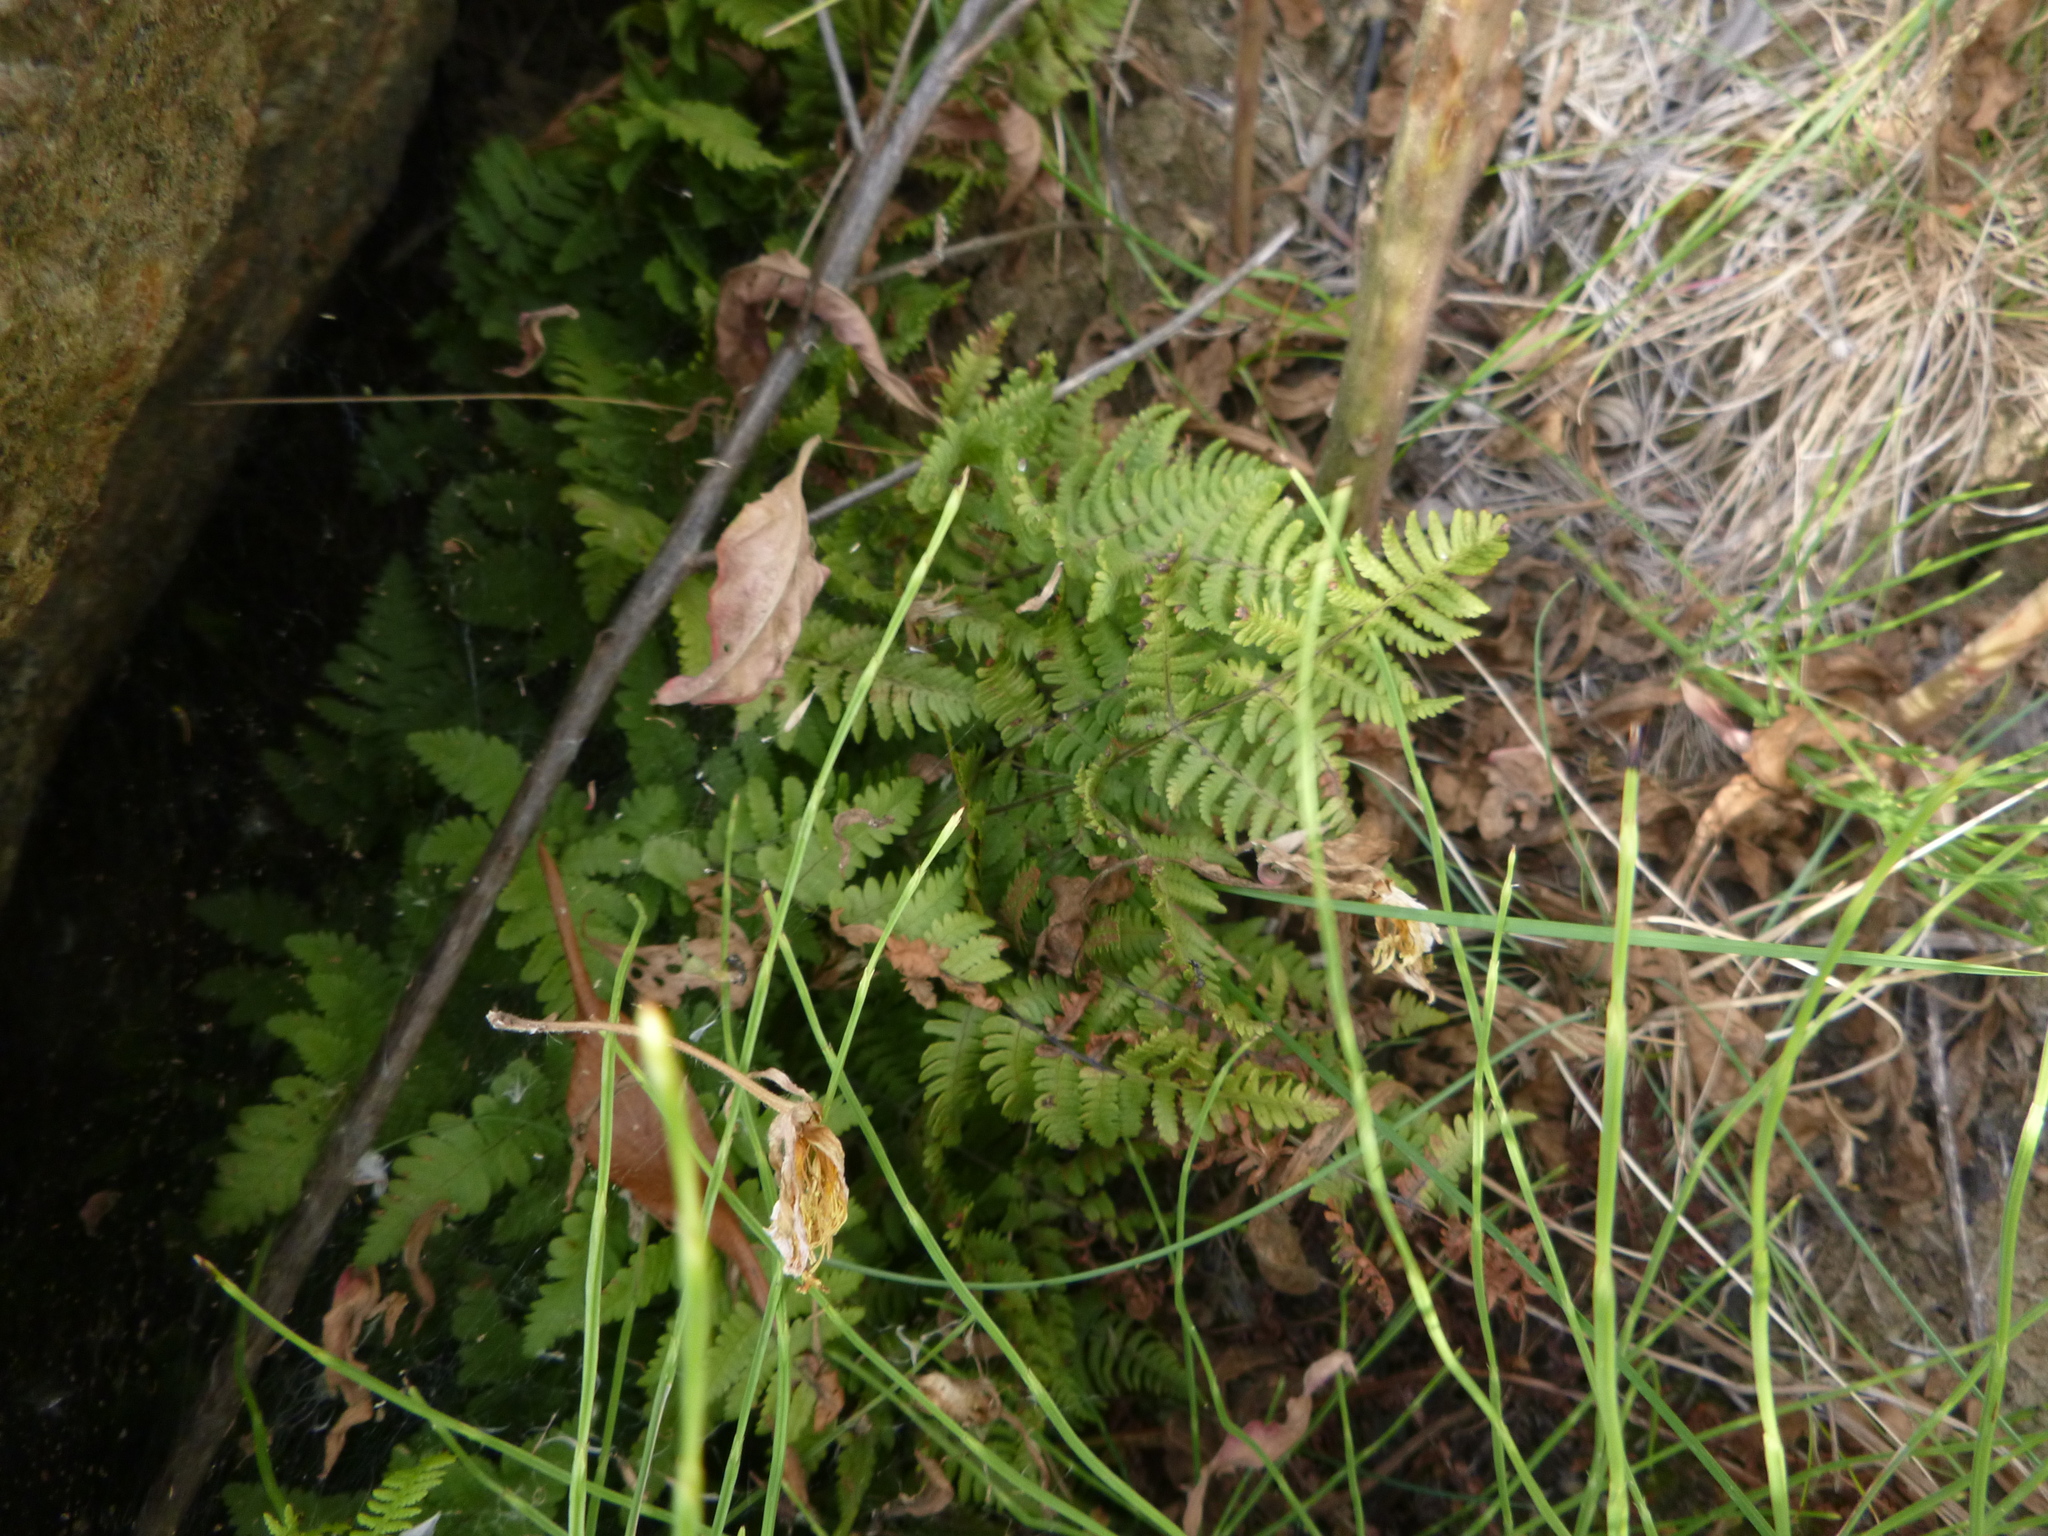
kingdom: Plantae
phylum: Tracheophyta
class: Polypodiopsida
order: Polypodiales
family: Cystopteridaceae
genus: Gymnocarpium
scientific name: Gymnocarpium robertianum
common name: Limestone fern
